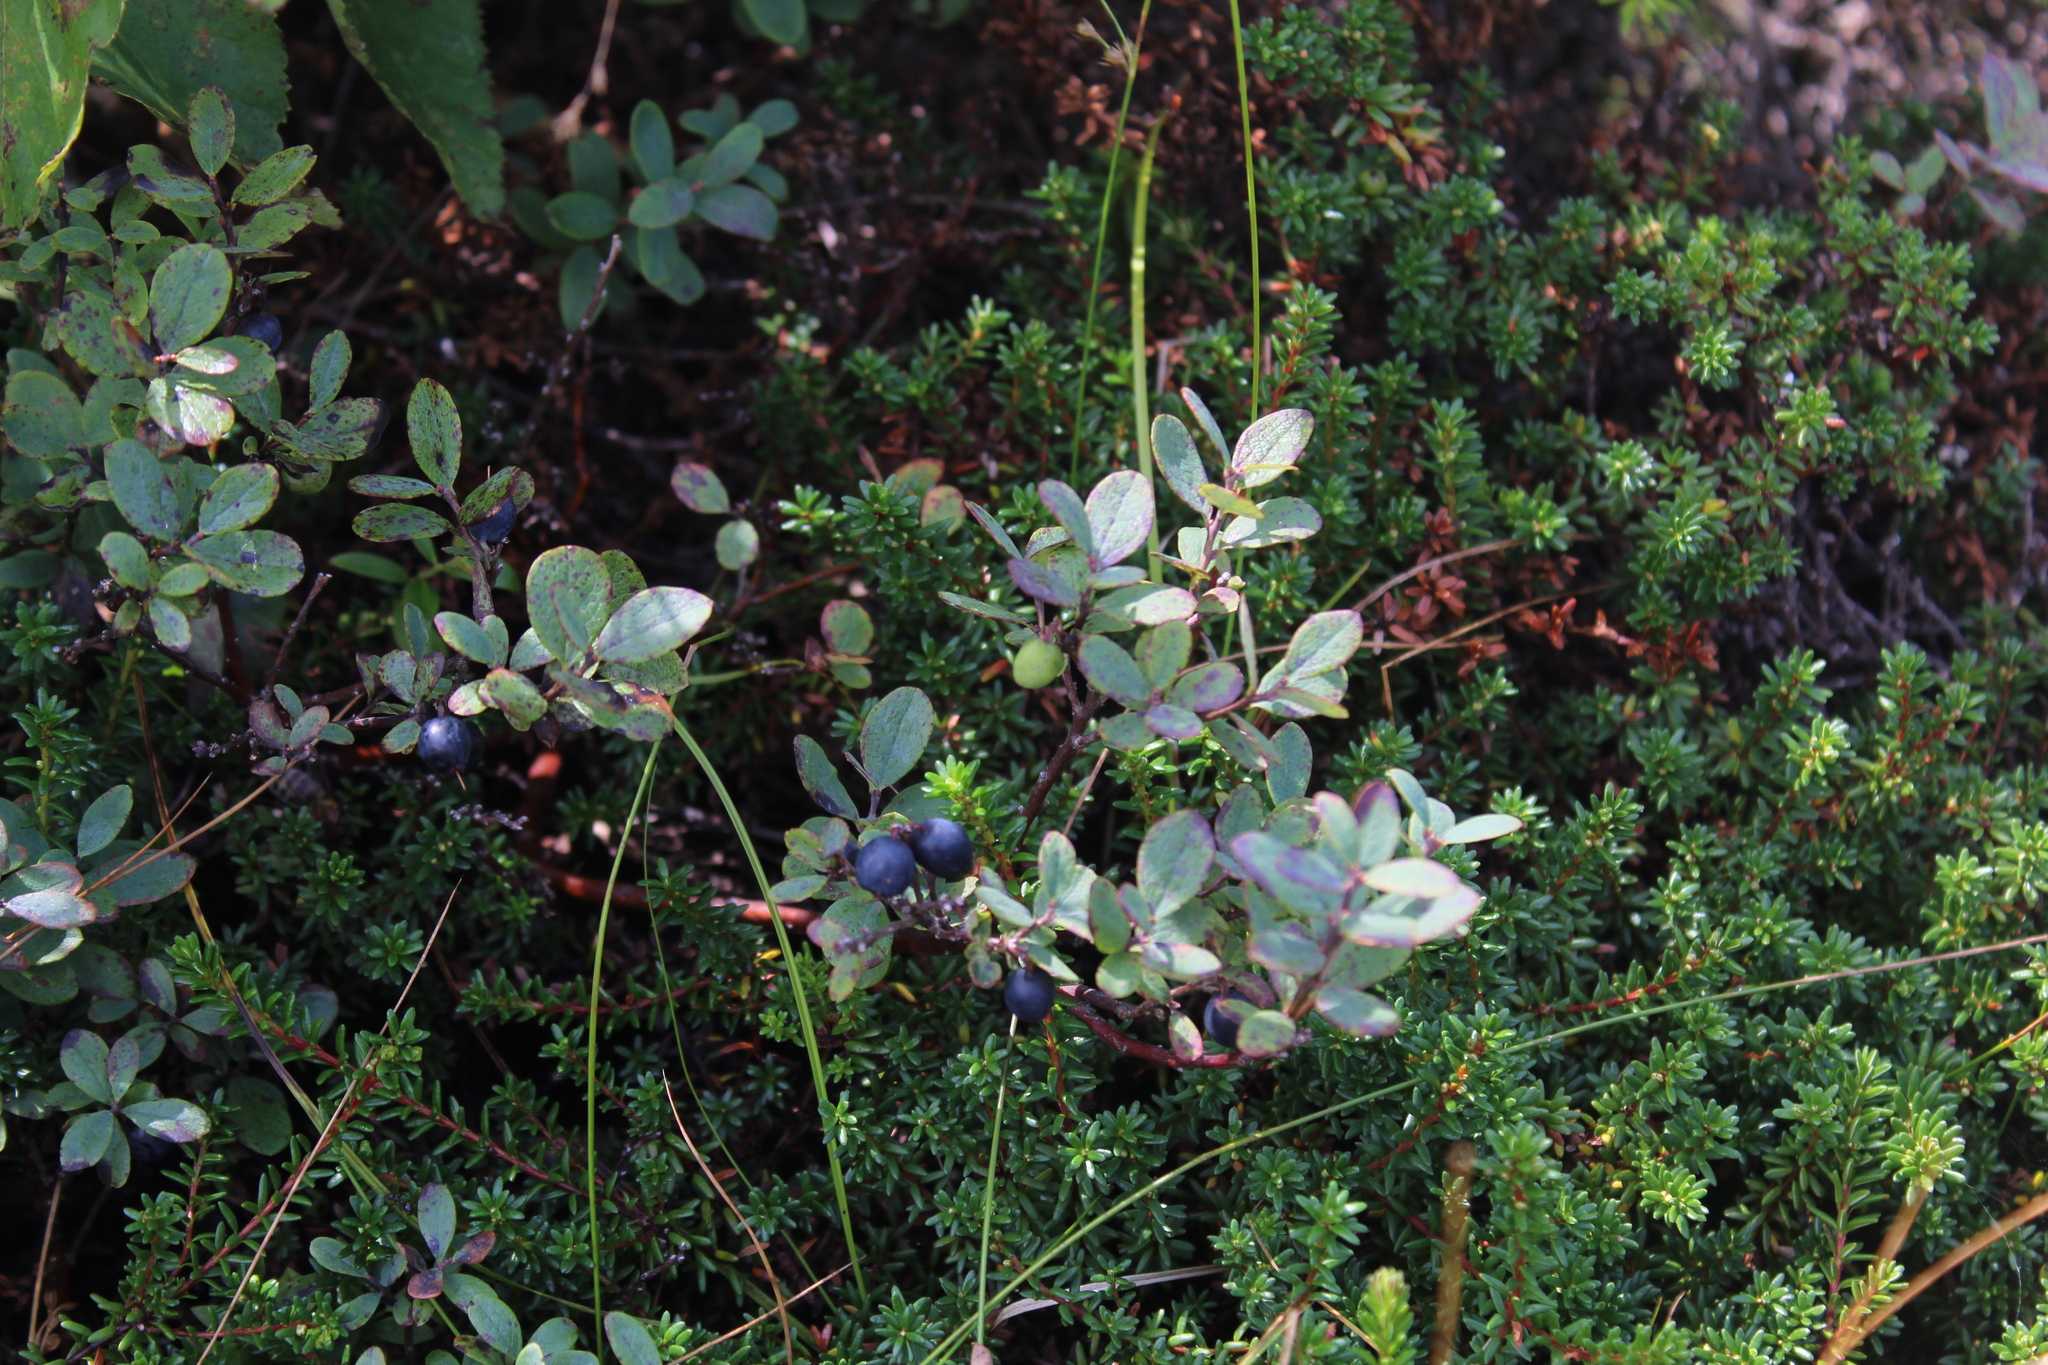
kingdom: Plantae
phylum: Tracheophyta
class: Magnoliopsida
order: Ericales
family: Ericaceae
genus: Empetrum
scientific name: Empetrum hermaphroditum
